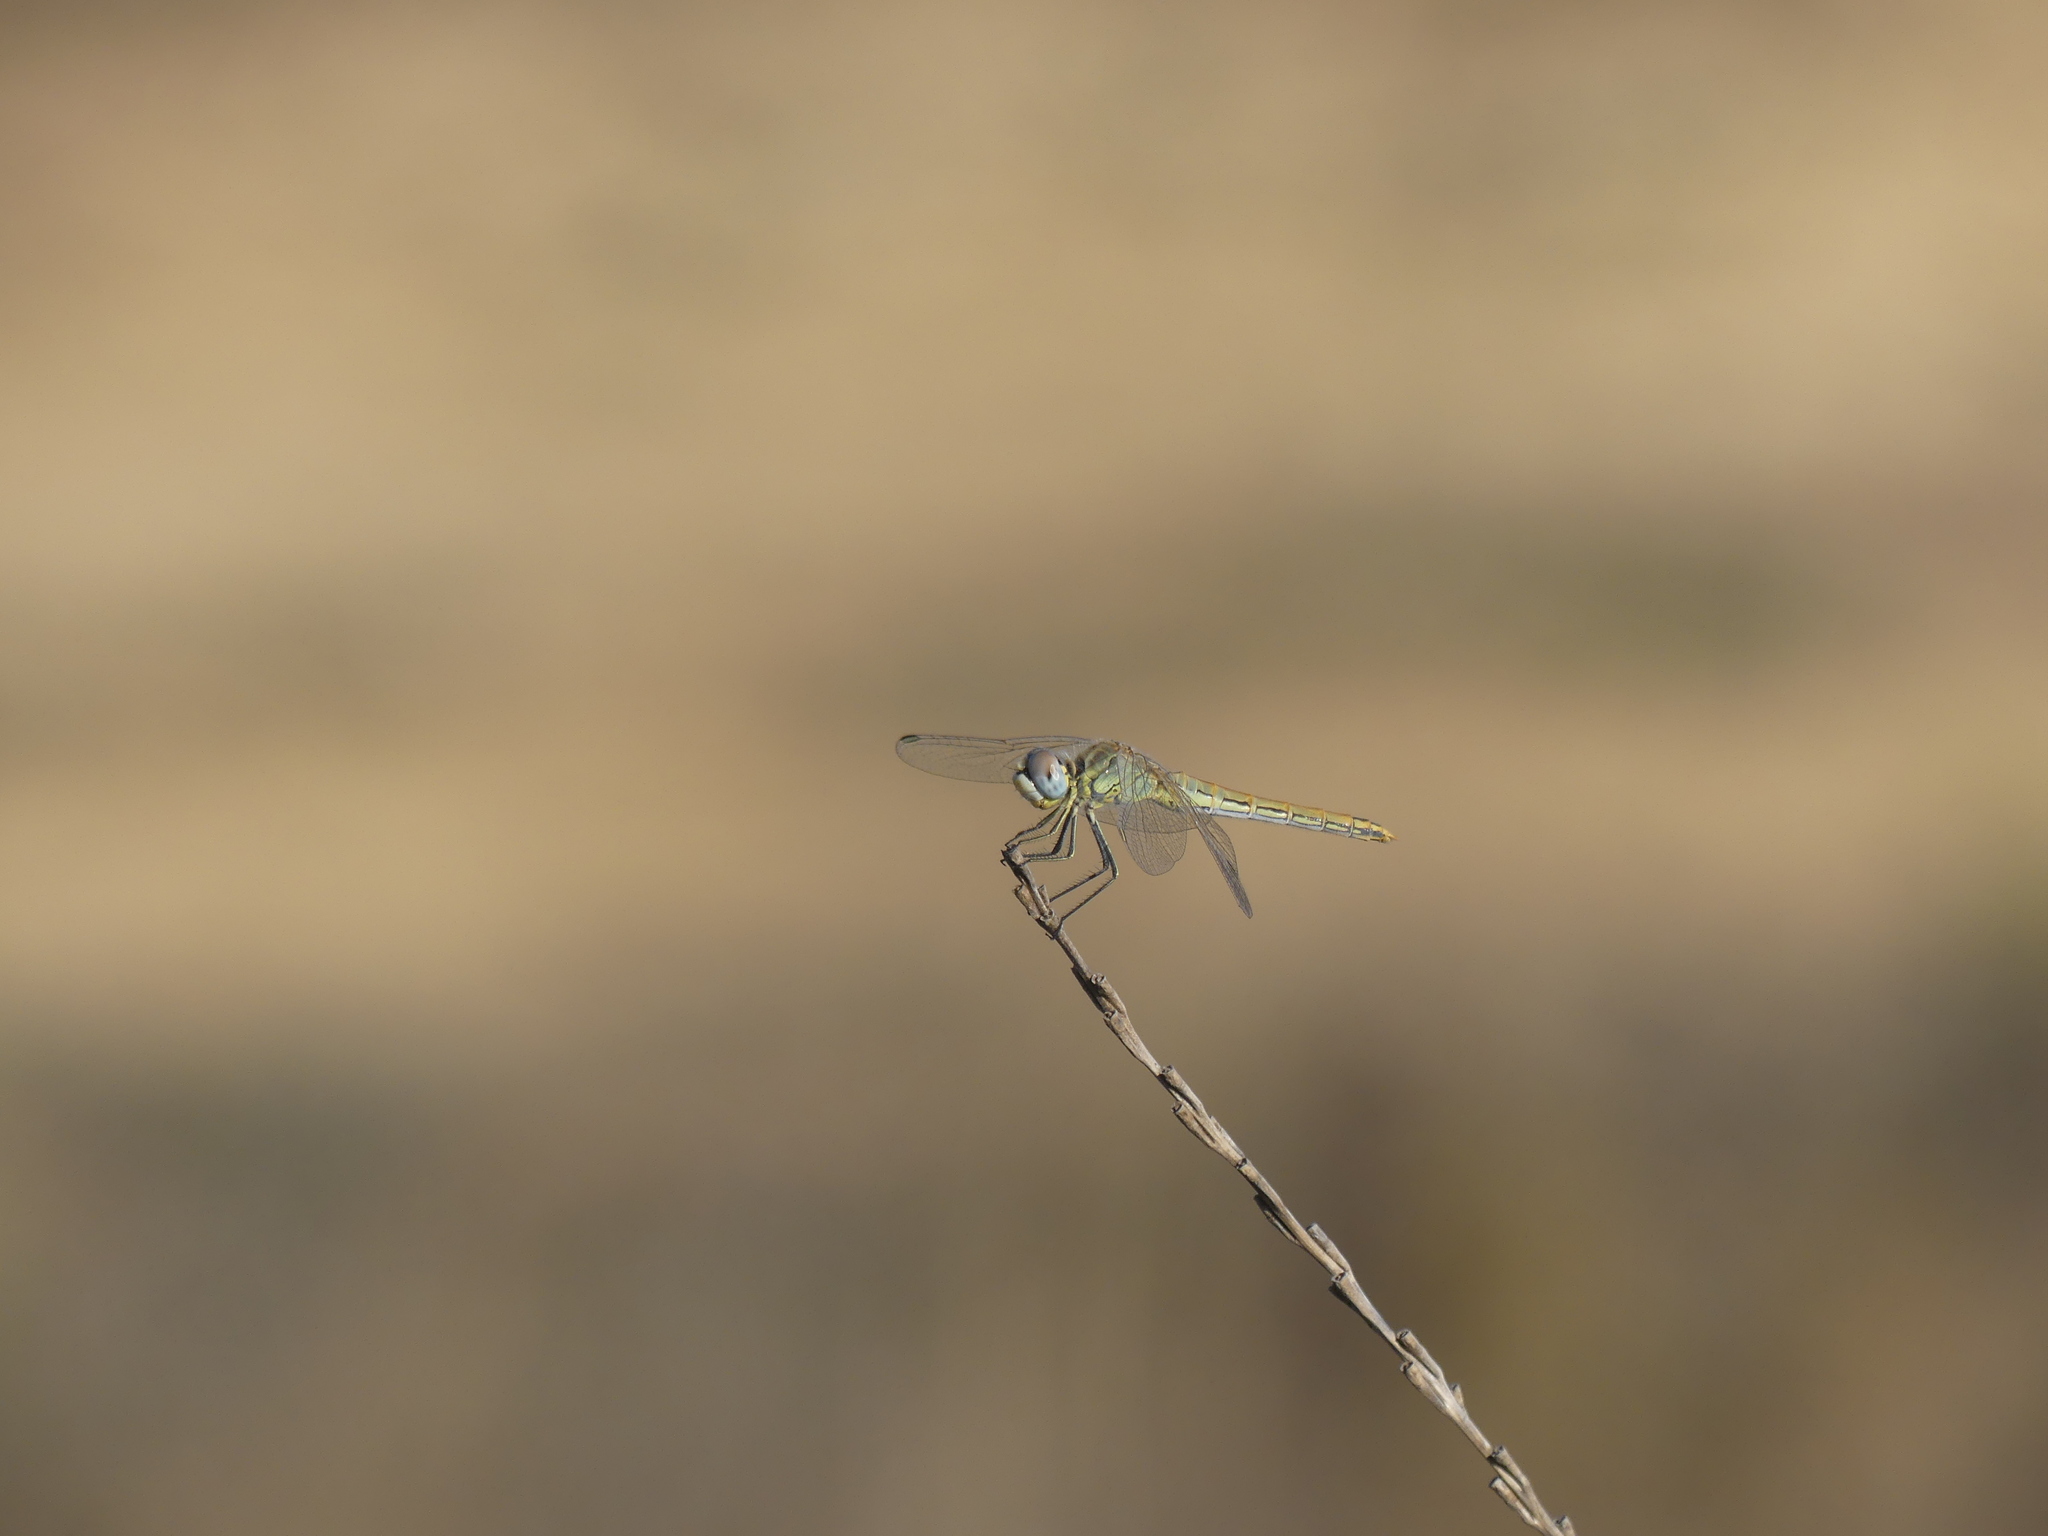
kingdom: Animalia
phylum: Arthropoda
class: Insecta
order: Odonata
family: Libellulidae
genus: Sympetrum
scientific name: Sympetrum fonscolombii
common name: Red-veined darter
